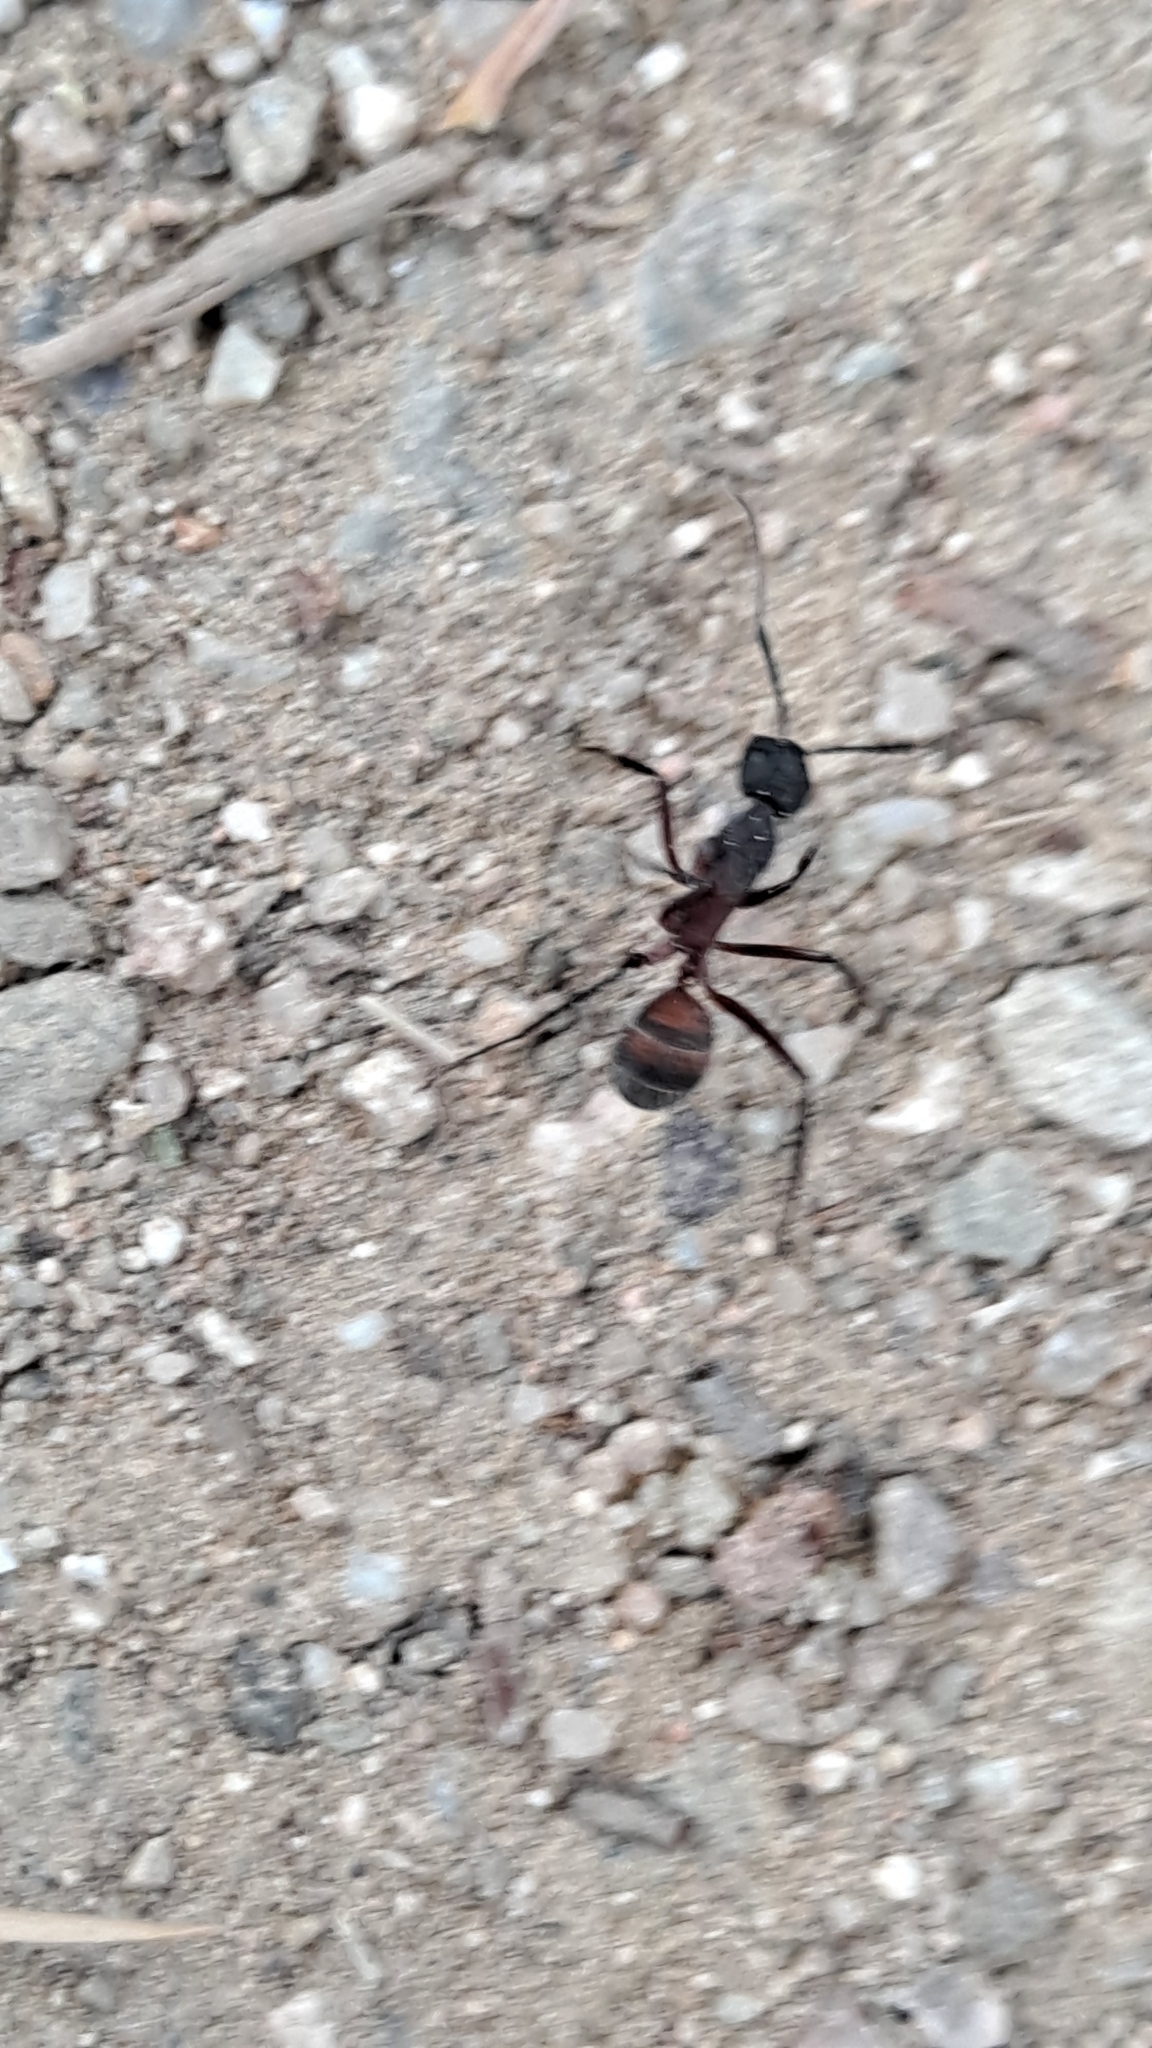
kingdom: Animalia
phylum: Arthropoda
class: Insecta
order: Hymenoptera
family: Formicidae
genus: Camponotus
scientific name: Camponotus cruentatus
